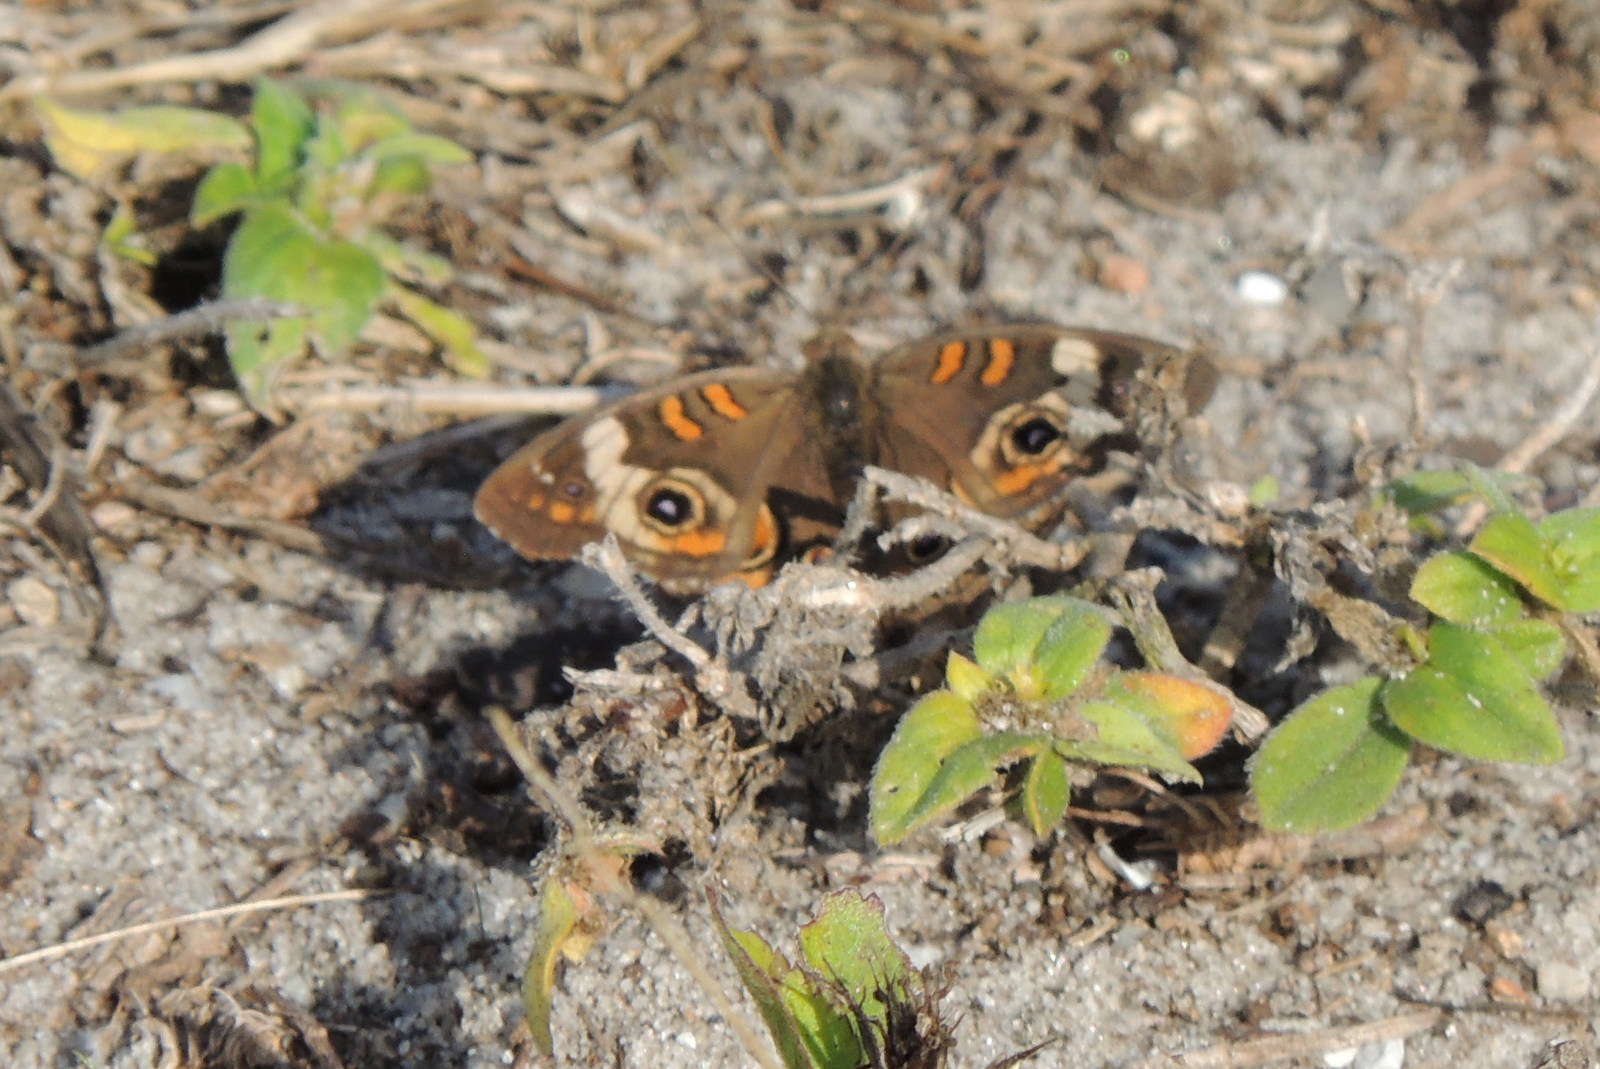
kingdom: Animalia
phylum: Arthropoda
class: Insecta
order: Lepidoptera
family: Nymphalidae
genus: Junonia
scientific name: Junonia coenia
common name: Common buckeye
